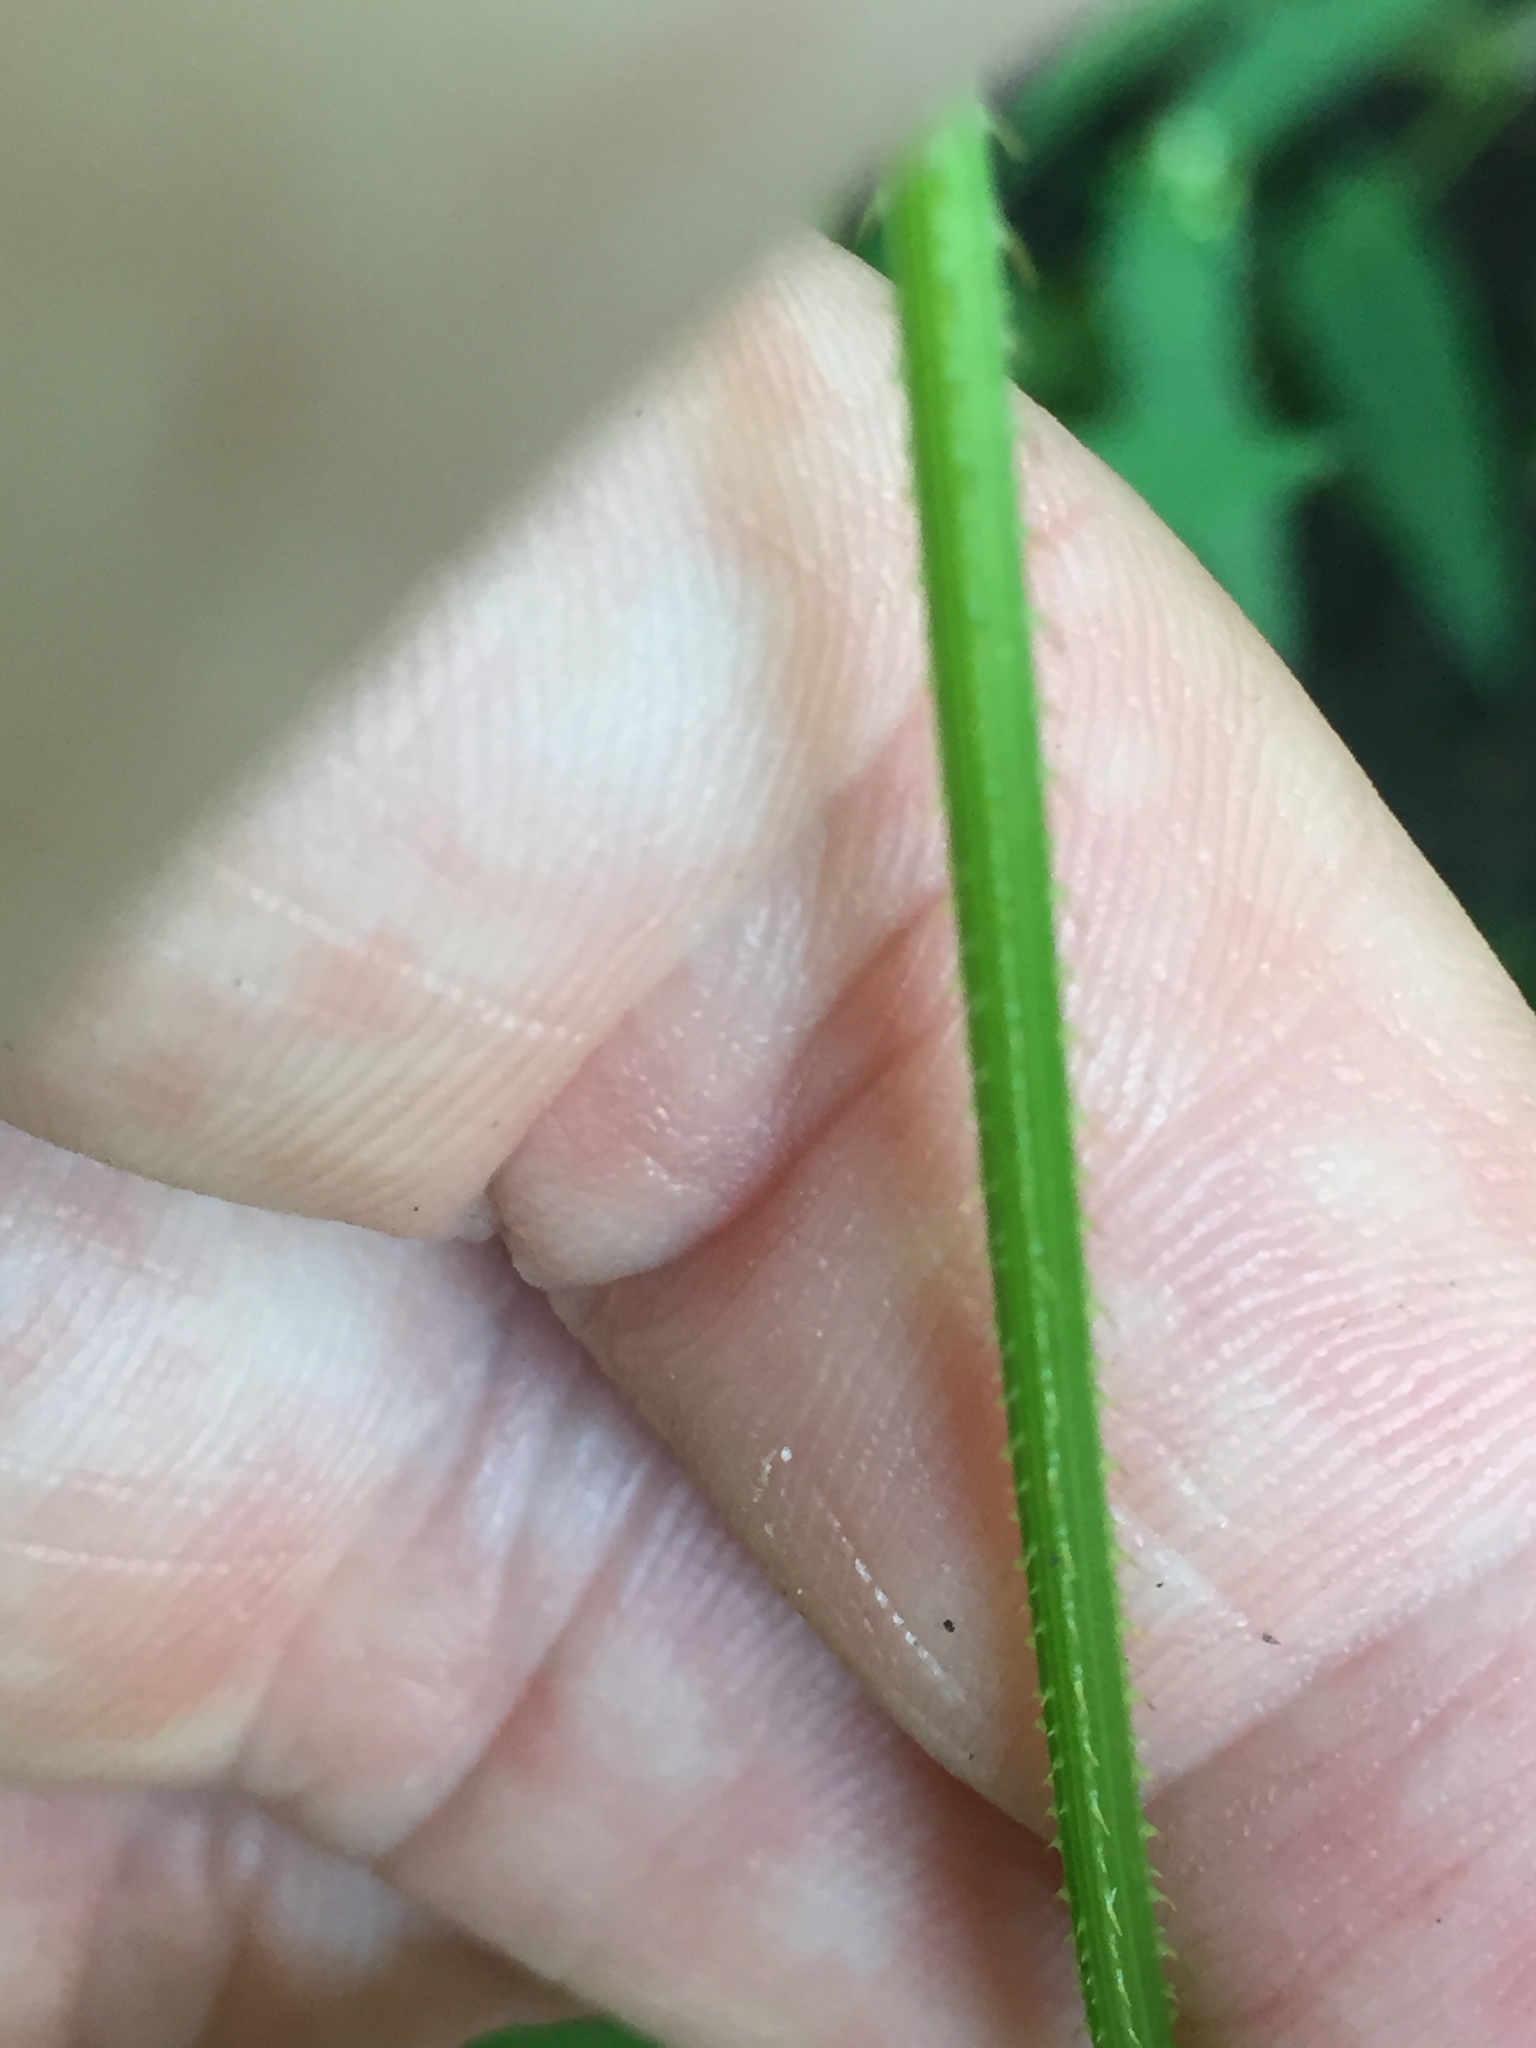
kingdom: Plantae
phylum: Tracheophyta
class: Magnoliopsida
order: Caryophyllales
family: Polygonaceae
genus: Persicaria
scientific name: Persicaria sagittata
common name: American tearthumb
